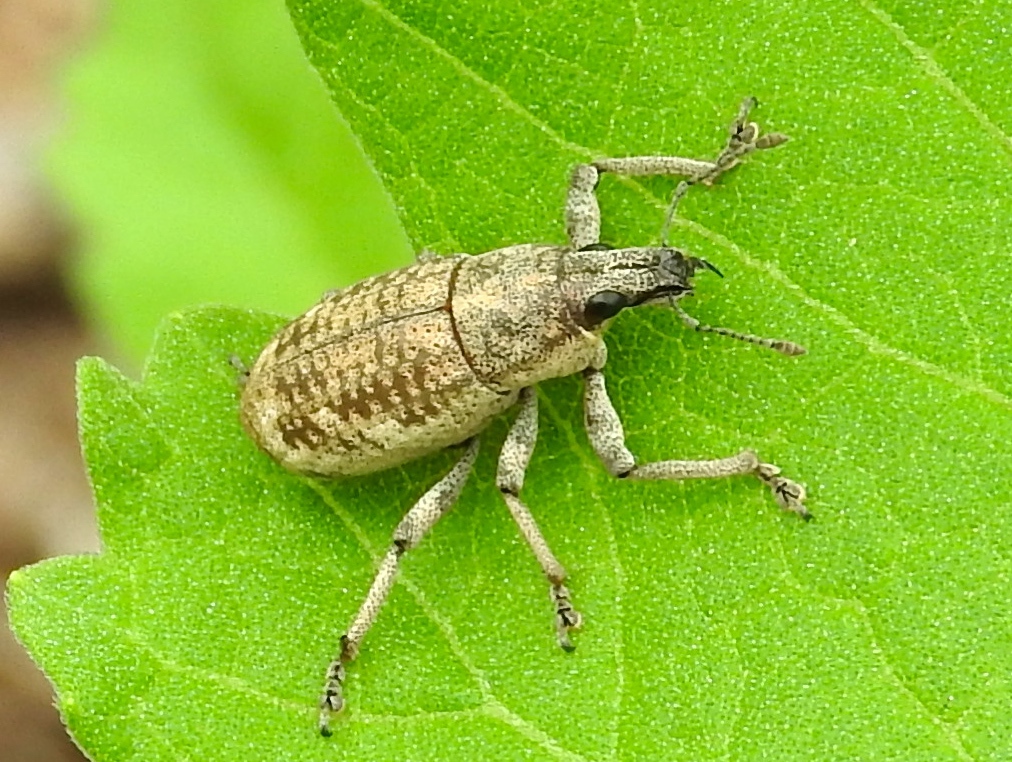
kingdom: Animalia
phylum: Arthropoda
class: Insecta
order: Coleoptera
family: Curculionidae
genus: Epicaerus
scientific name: Epicaerus
